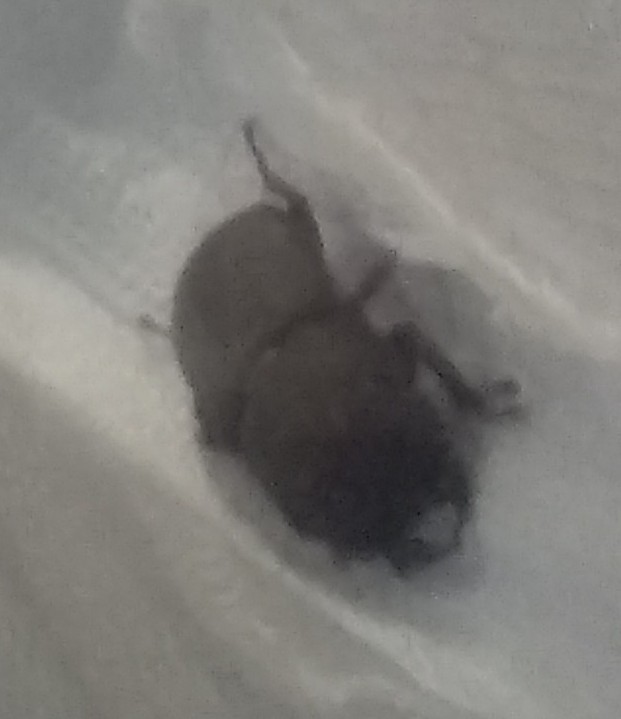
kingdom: Animalia
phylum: Arthropoda
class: Insecta
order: Coleoptera
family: Lucanidae
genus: Dorcus
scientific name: Dorcus parallelipipedus
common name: Lesser stag beetle
